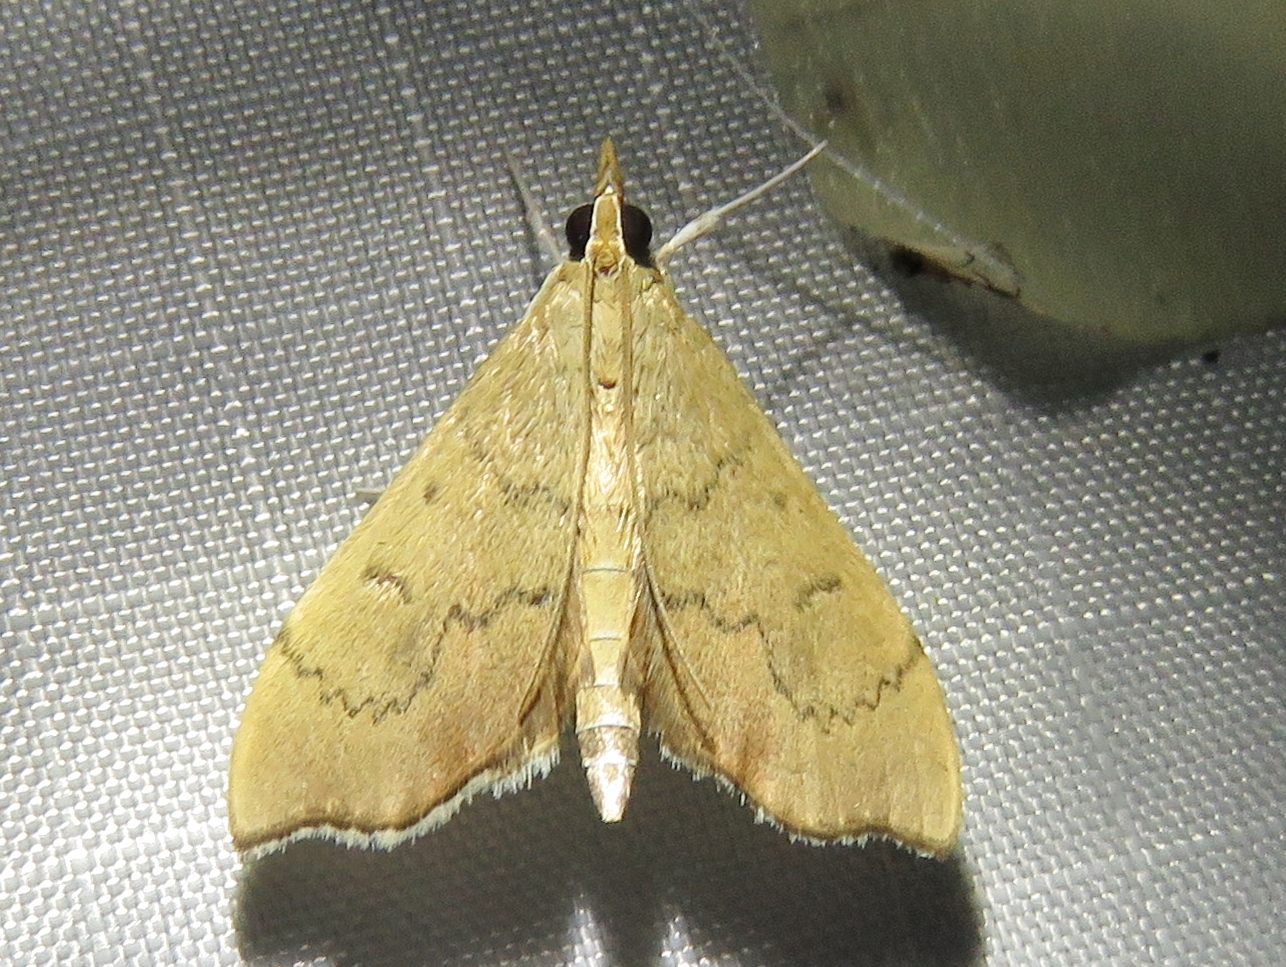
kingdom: Animalia
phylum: Arthropoda
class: Insecta
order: Lepidoptera
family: Crambidae
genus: Sericoplaga
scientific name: Sericoplaga externalis
